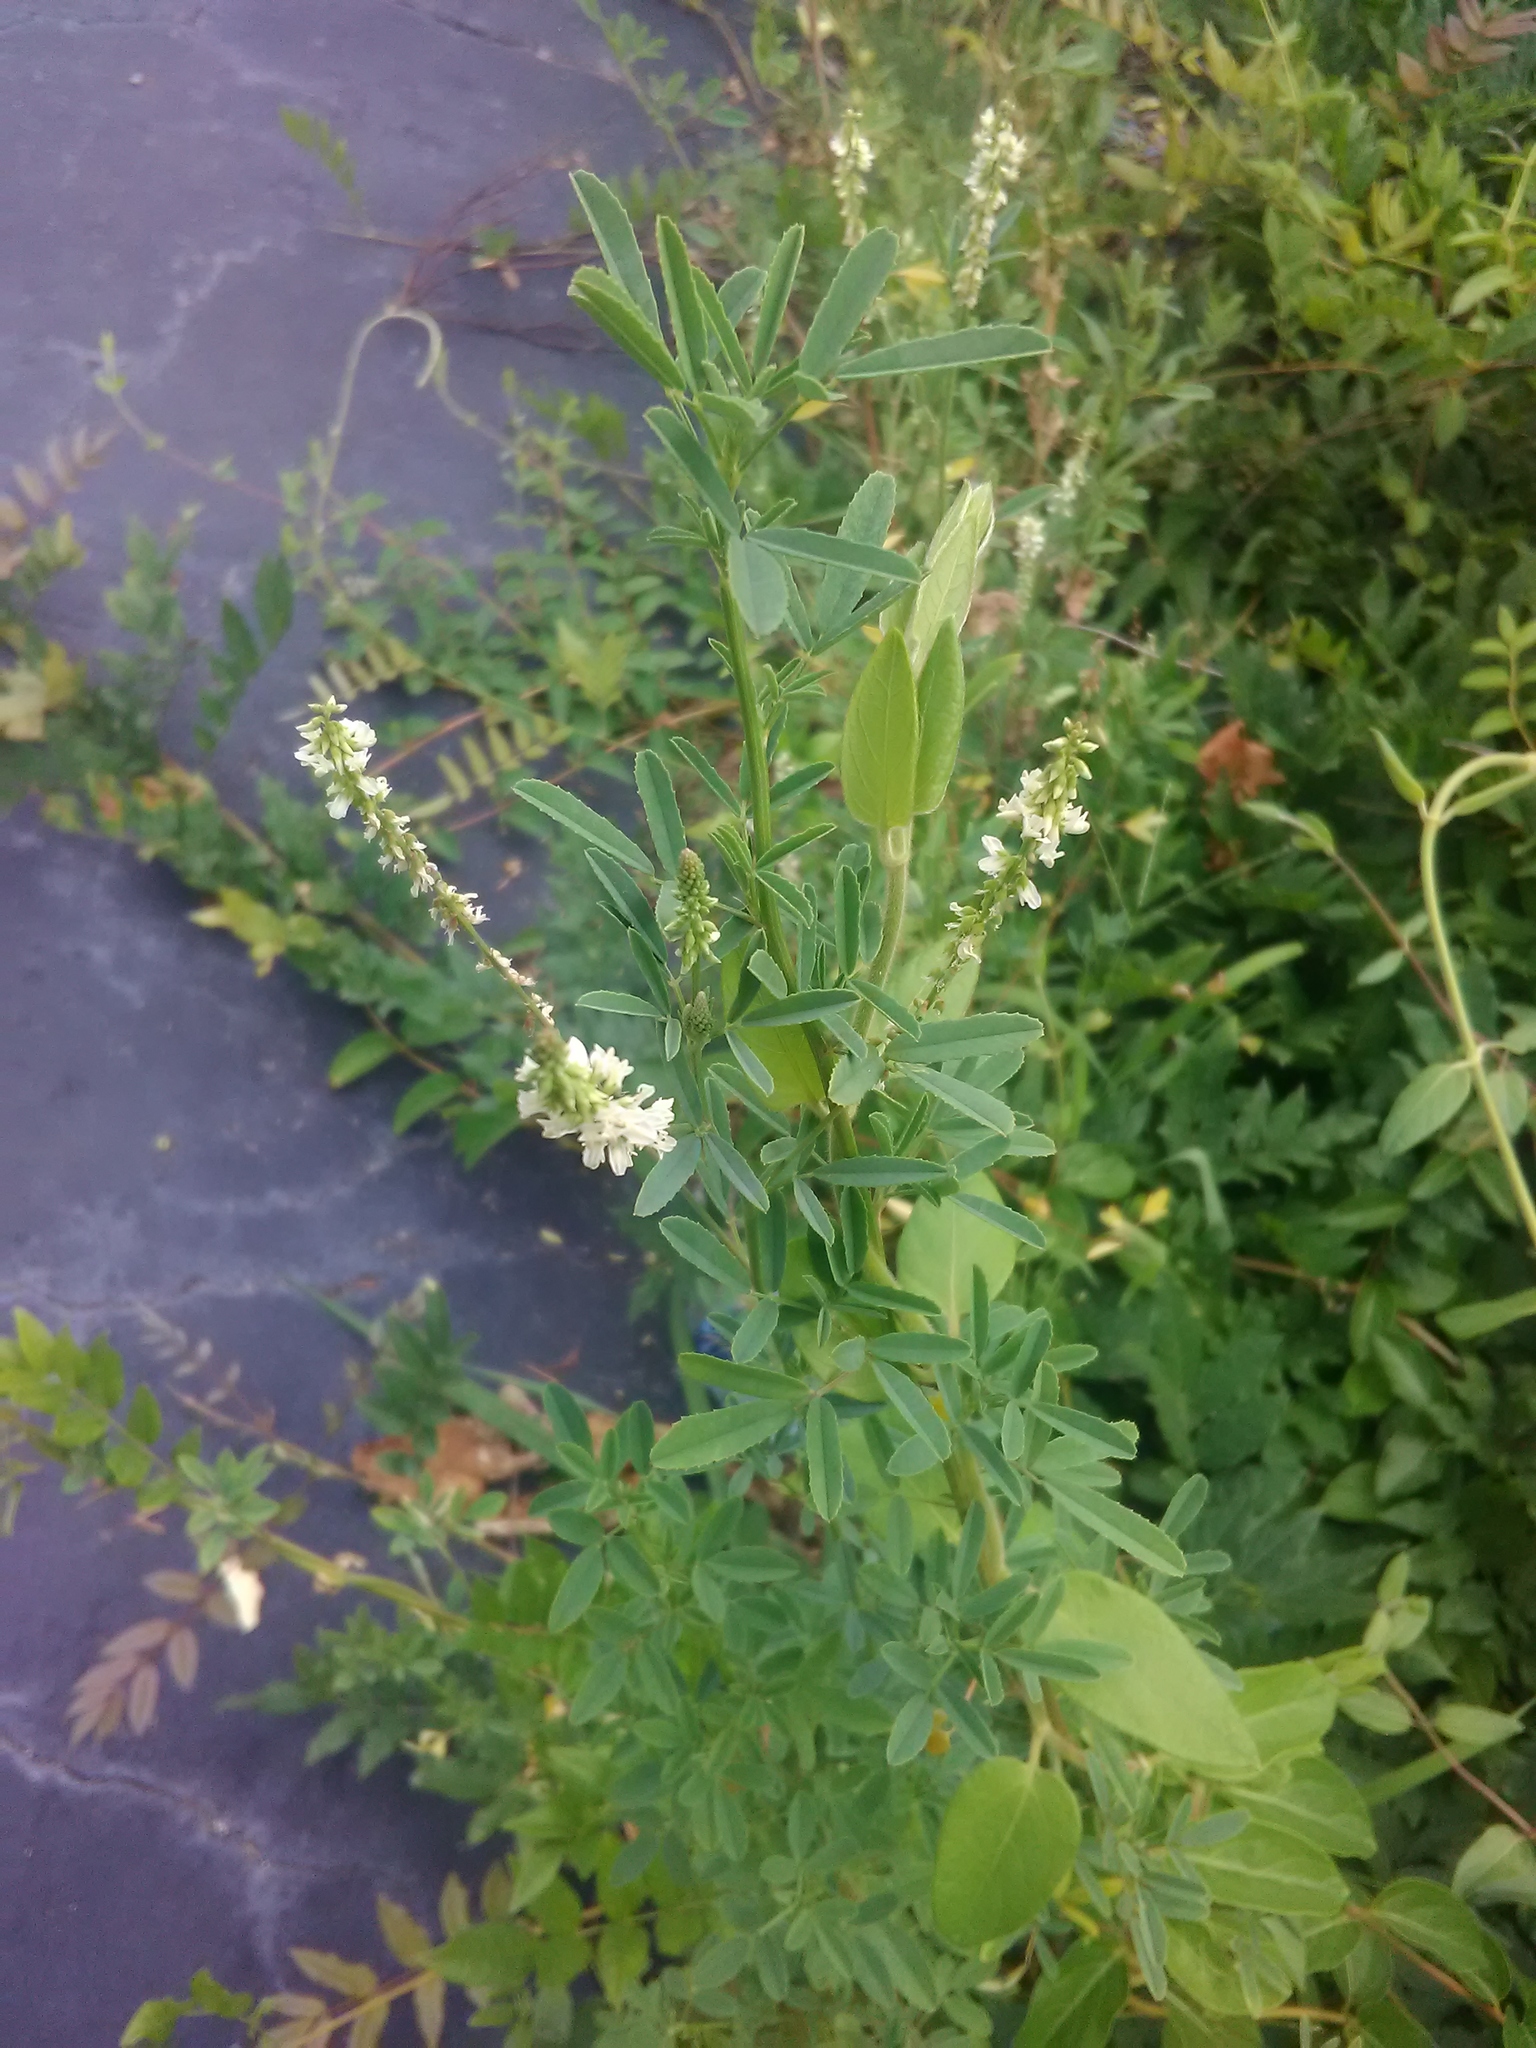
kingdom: Plantae
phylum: Tracheophyta
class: Magnoliopsida
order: Fabales
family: Fabaceae
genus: Melilotus
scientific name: Melilotus albus
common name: White melilot
